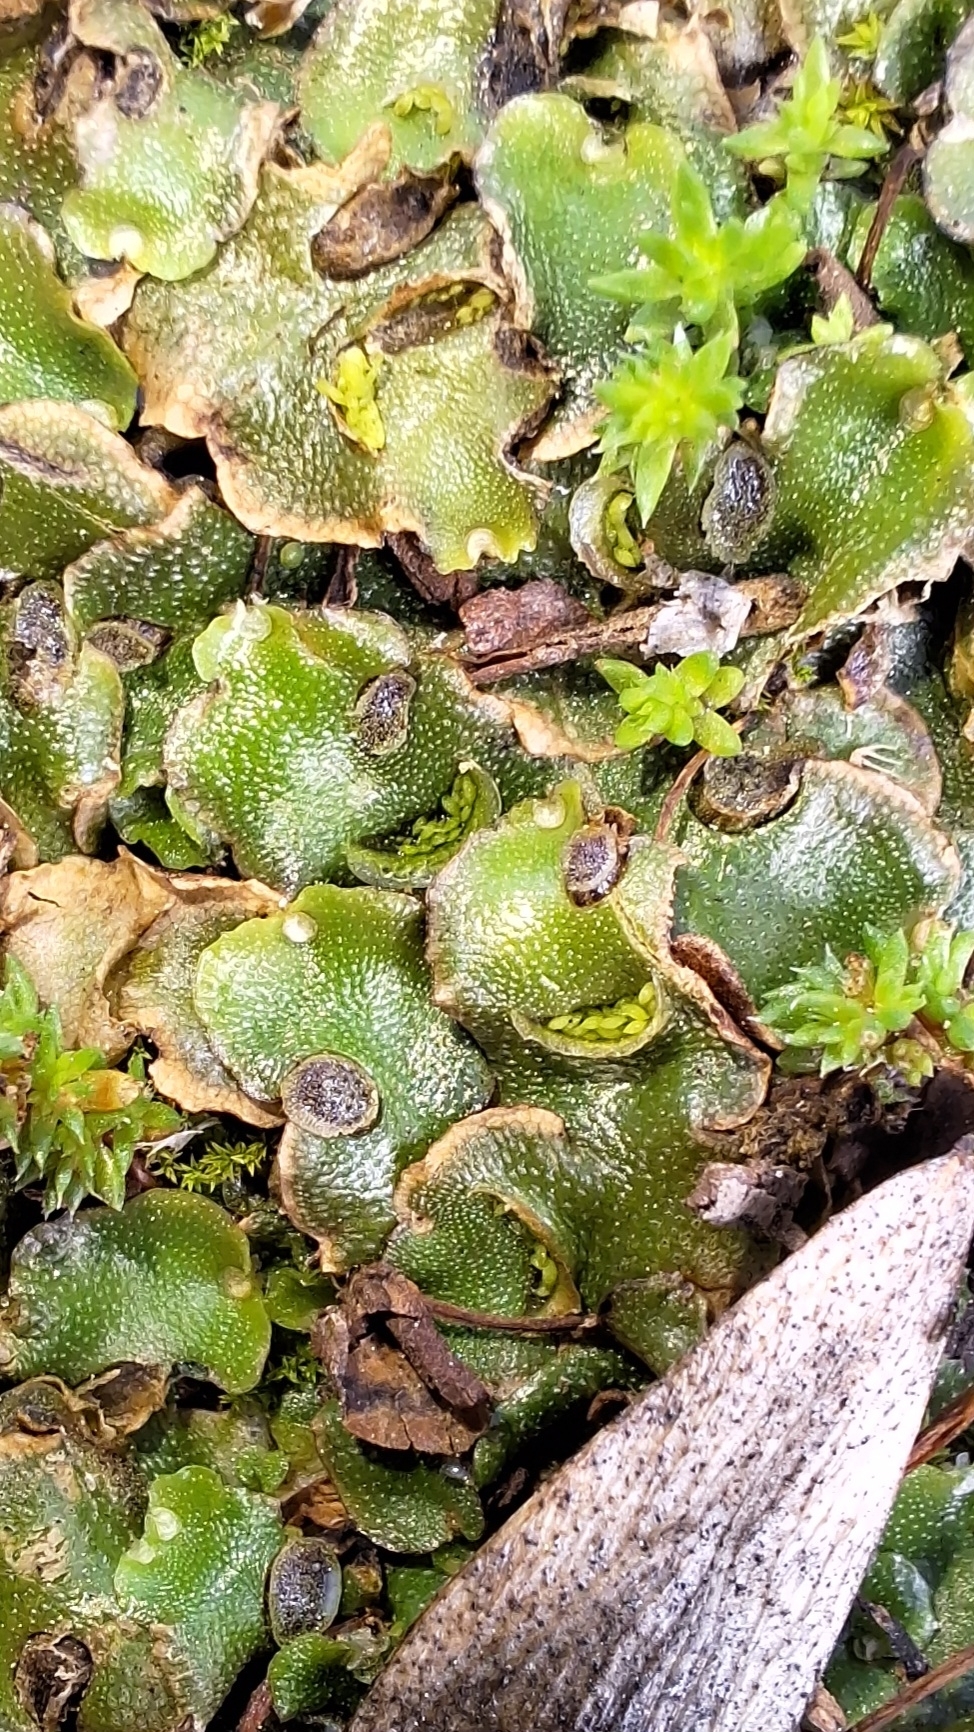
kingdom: Plantae
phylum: Marchantiophyta
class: Marchantiopsida
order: Lunulariales
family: Lunulariaceae
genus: Lunularia
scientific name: Lunularia cruciata
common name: Crescent-cup liverwort
